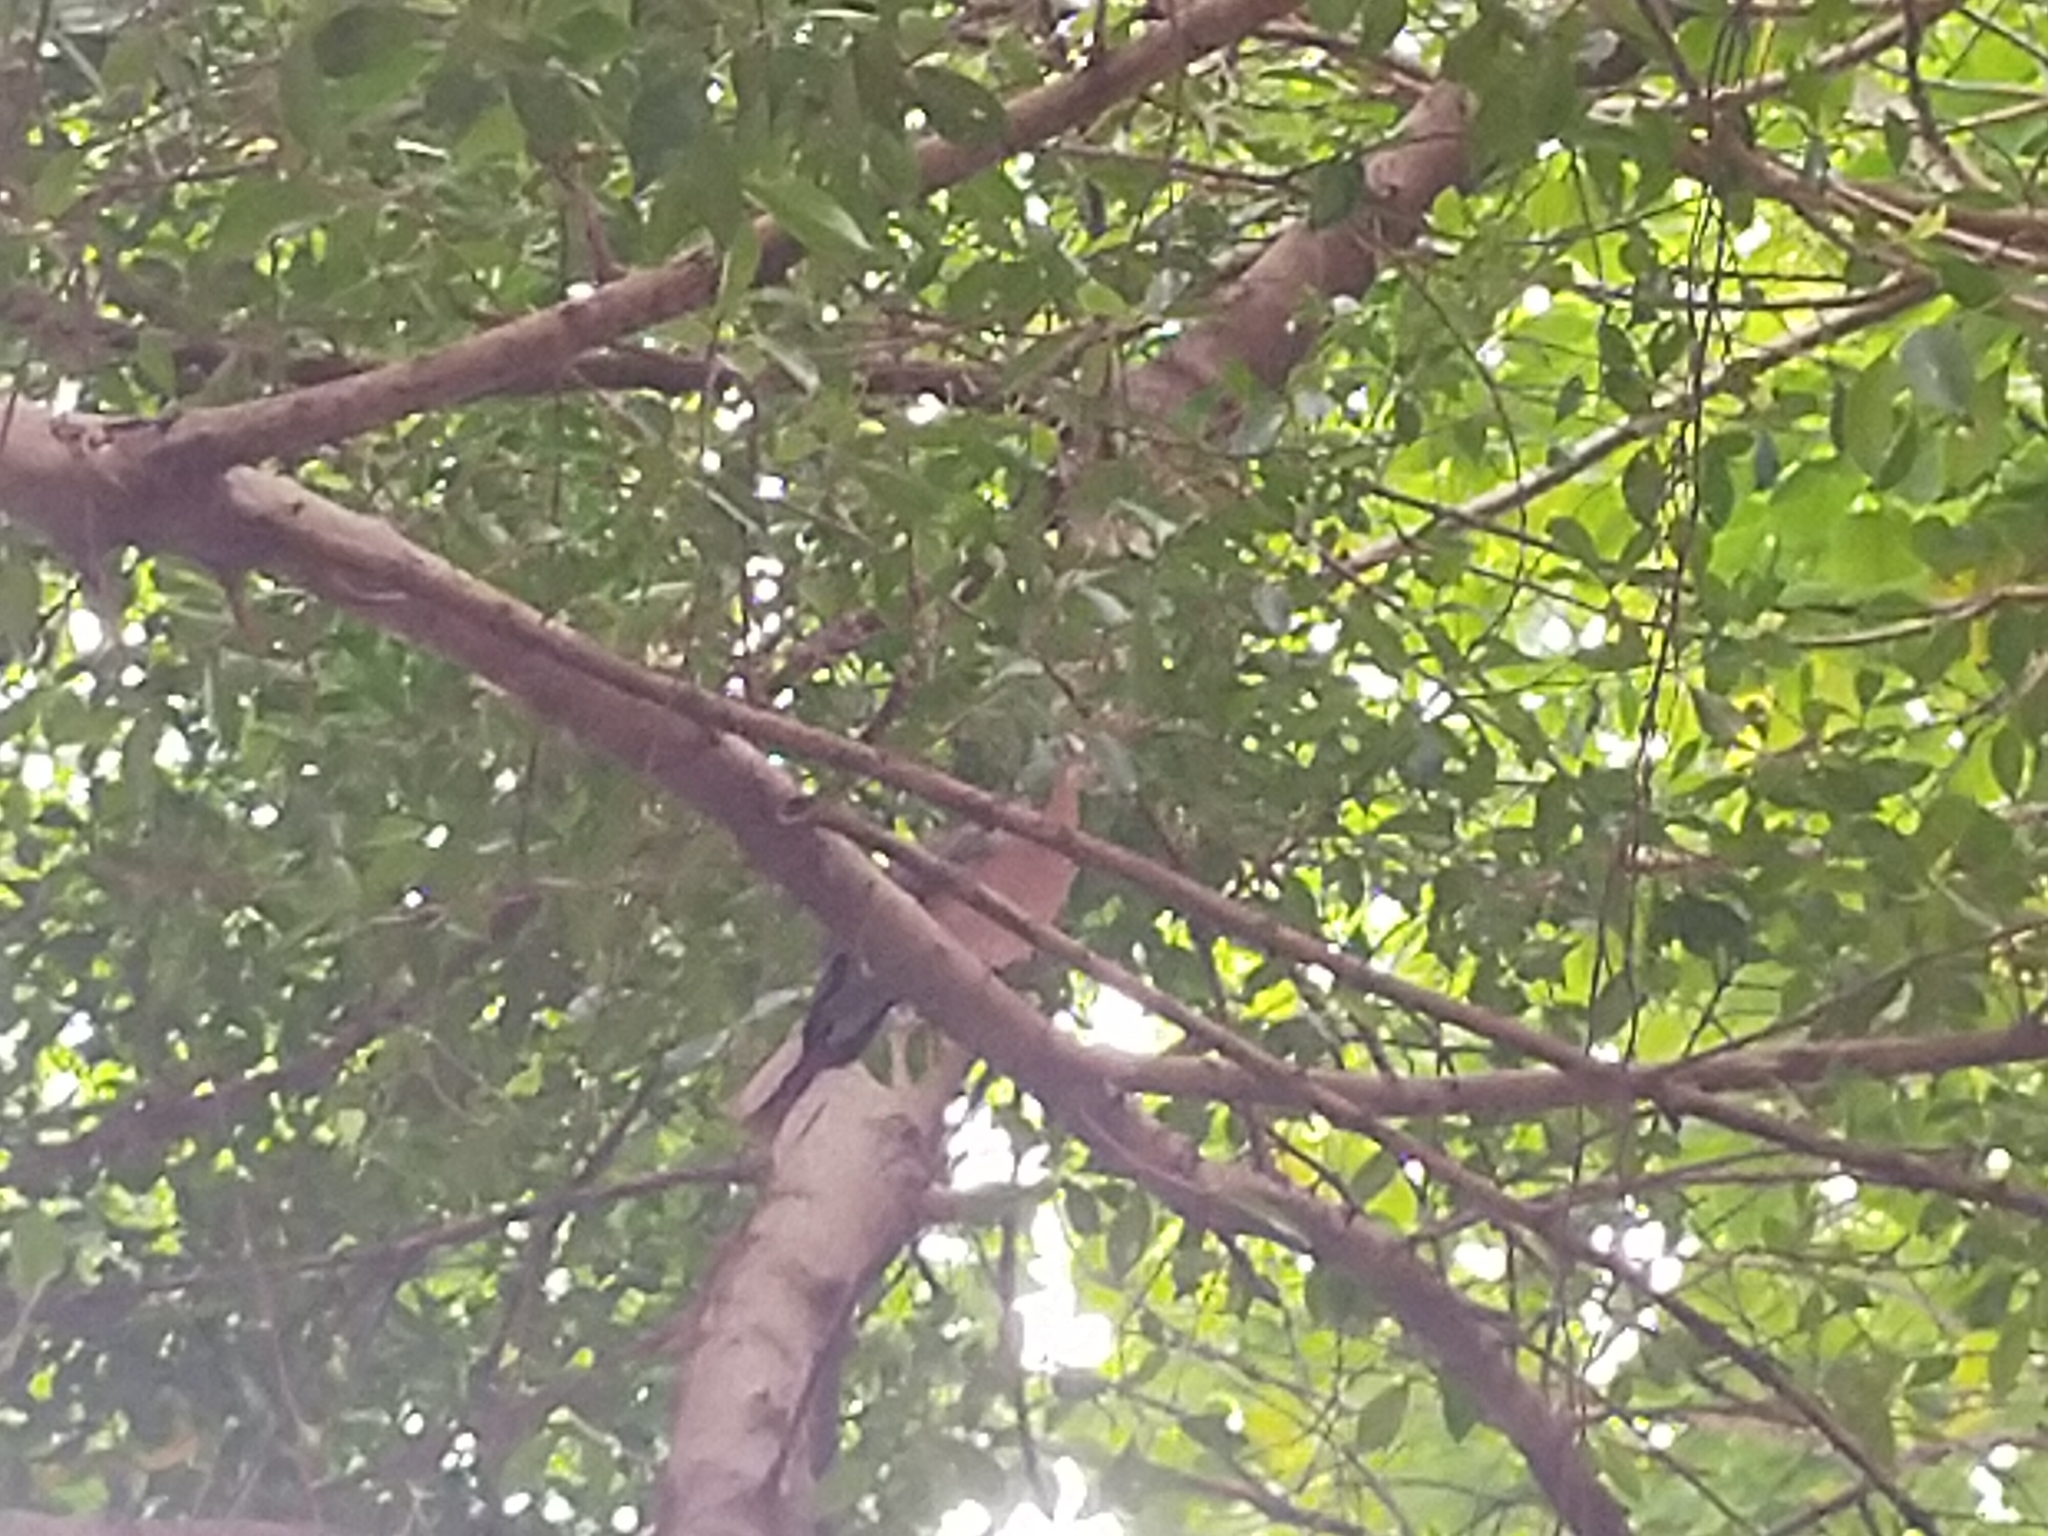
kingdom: Animalia
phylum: Chordata
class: Aves
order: Columbiformes
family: Columbidae
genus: Spilopelia
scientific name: Spilopelia chinensis
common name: Spotted dove
